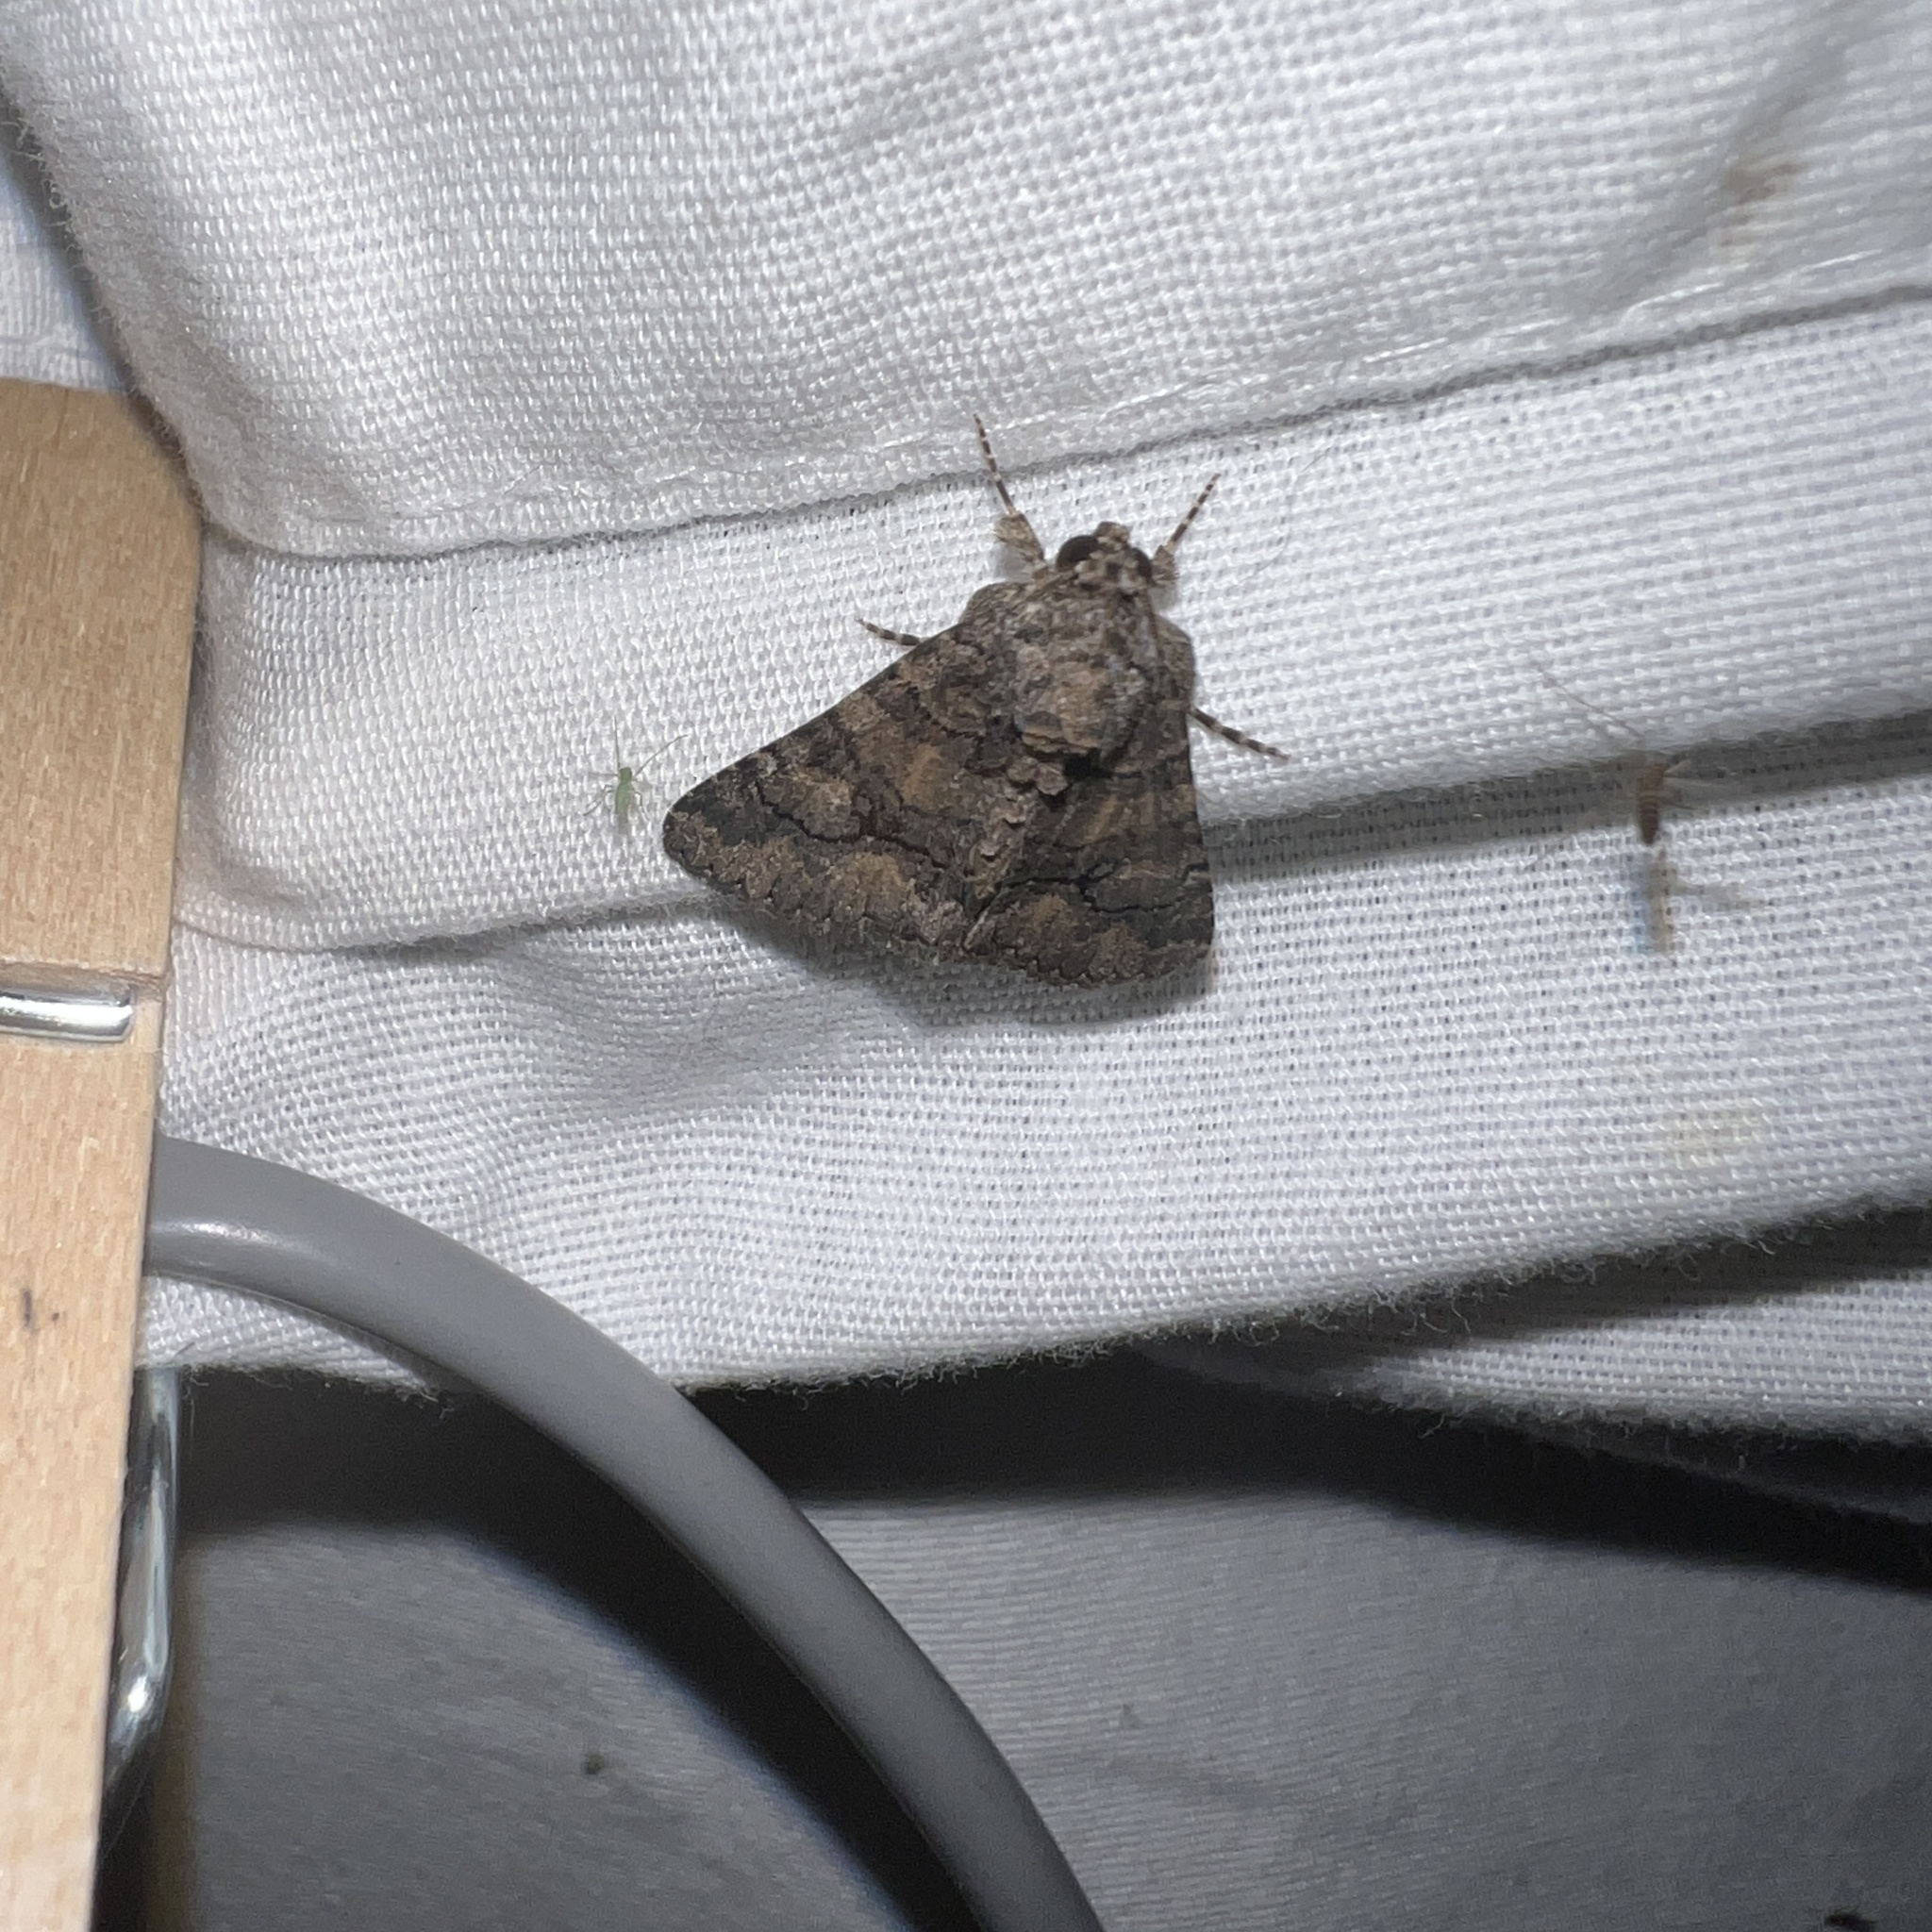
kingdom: Animalia
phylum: Arthropoda
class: Insecta
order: Lepidoptera
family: Erebidae
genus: Elousa
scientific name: Elousa mima
